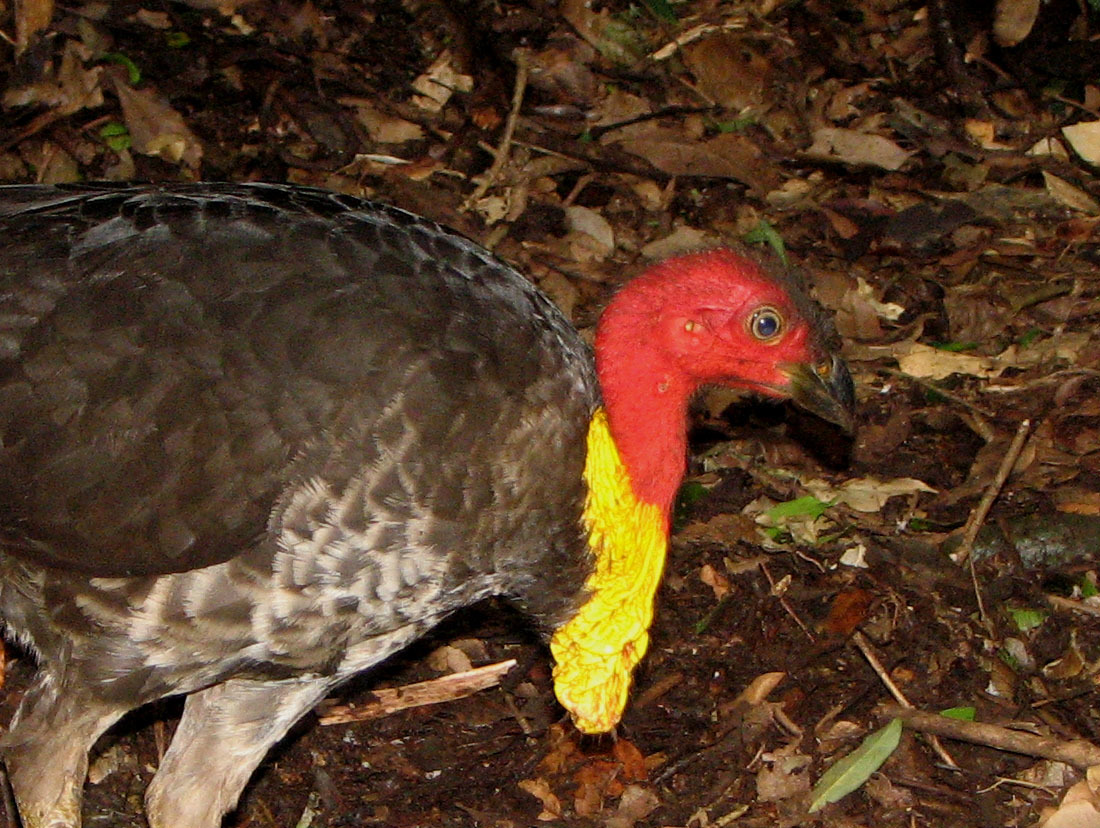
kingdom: Animalia
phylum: Chordata
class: Aves
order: Galliformes
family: Megapodiidae
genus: Alectura
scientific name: Alectura lathami
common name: Australian brushturkey
